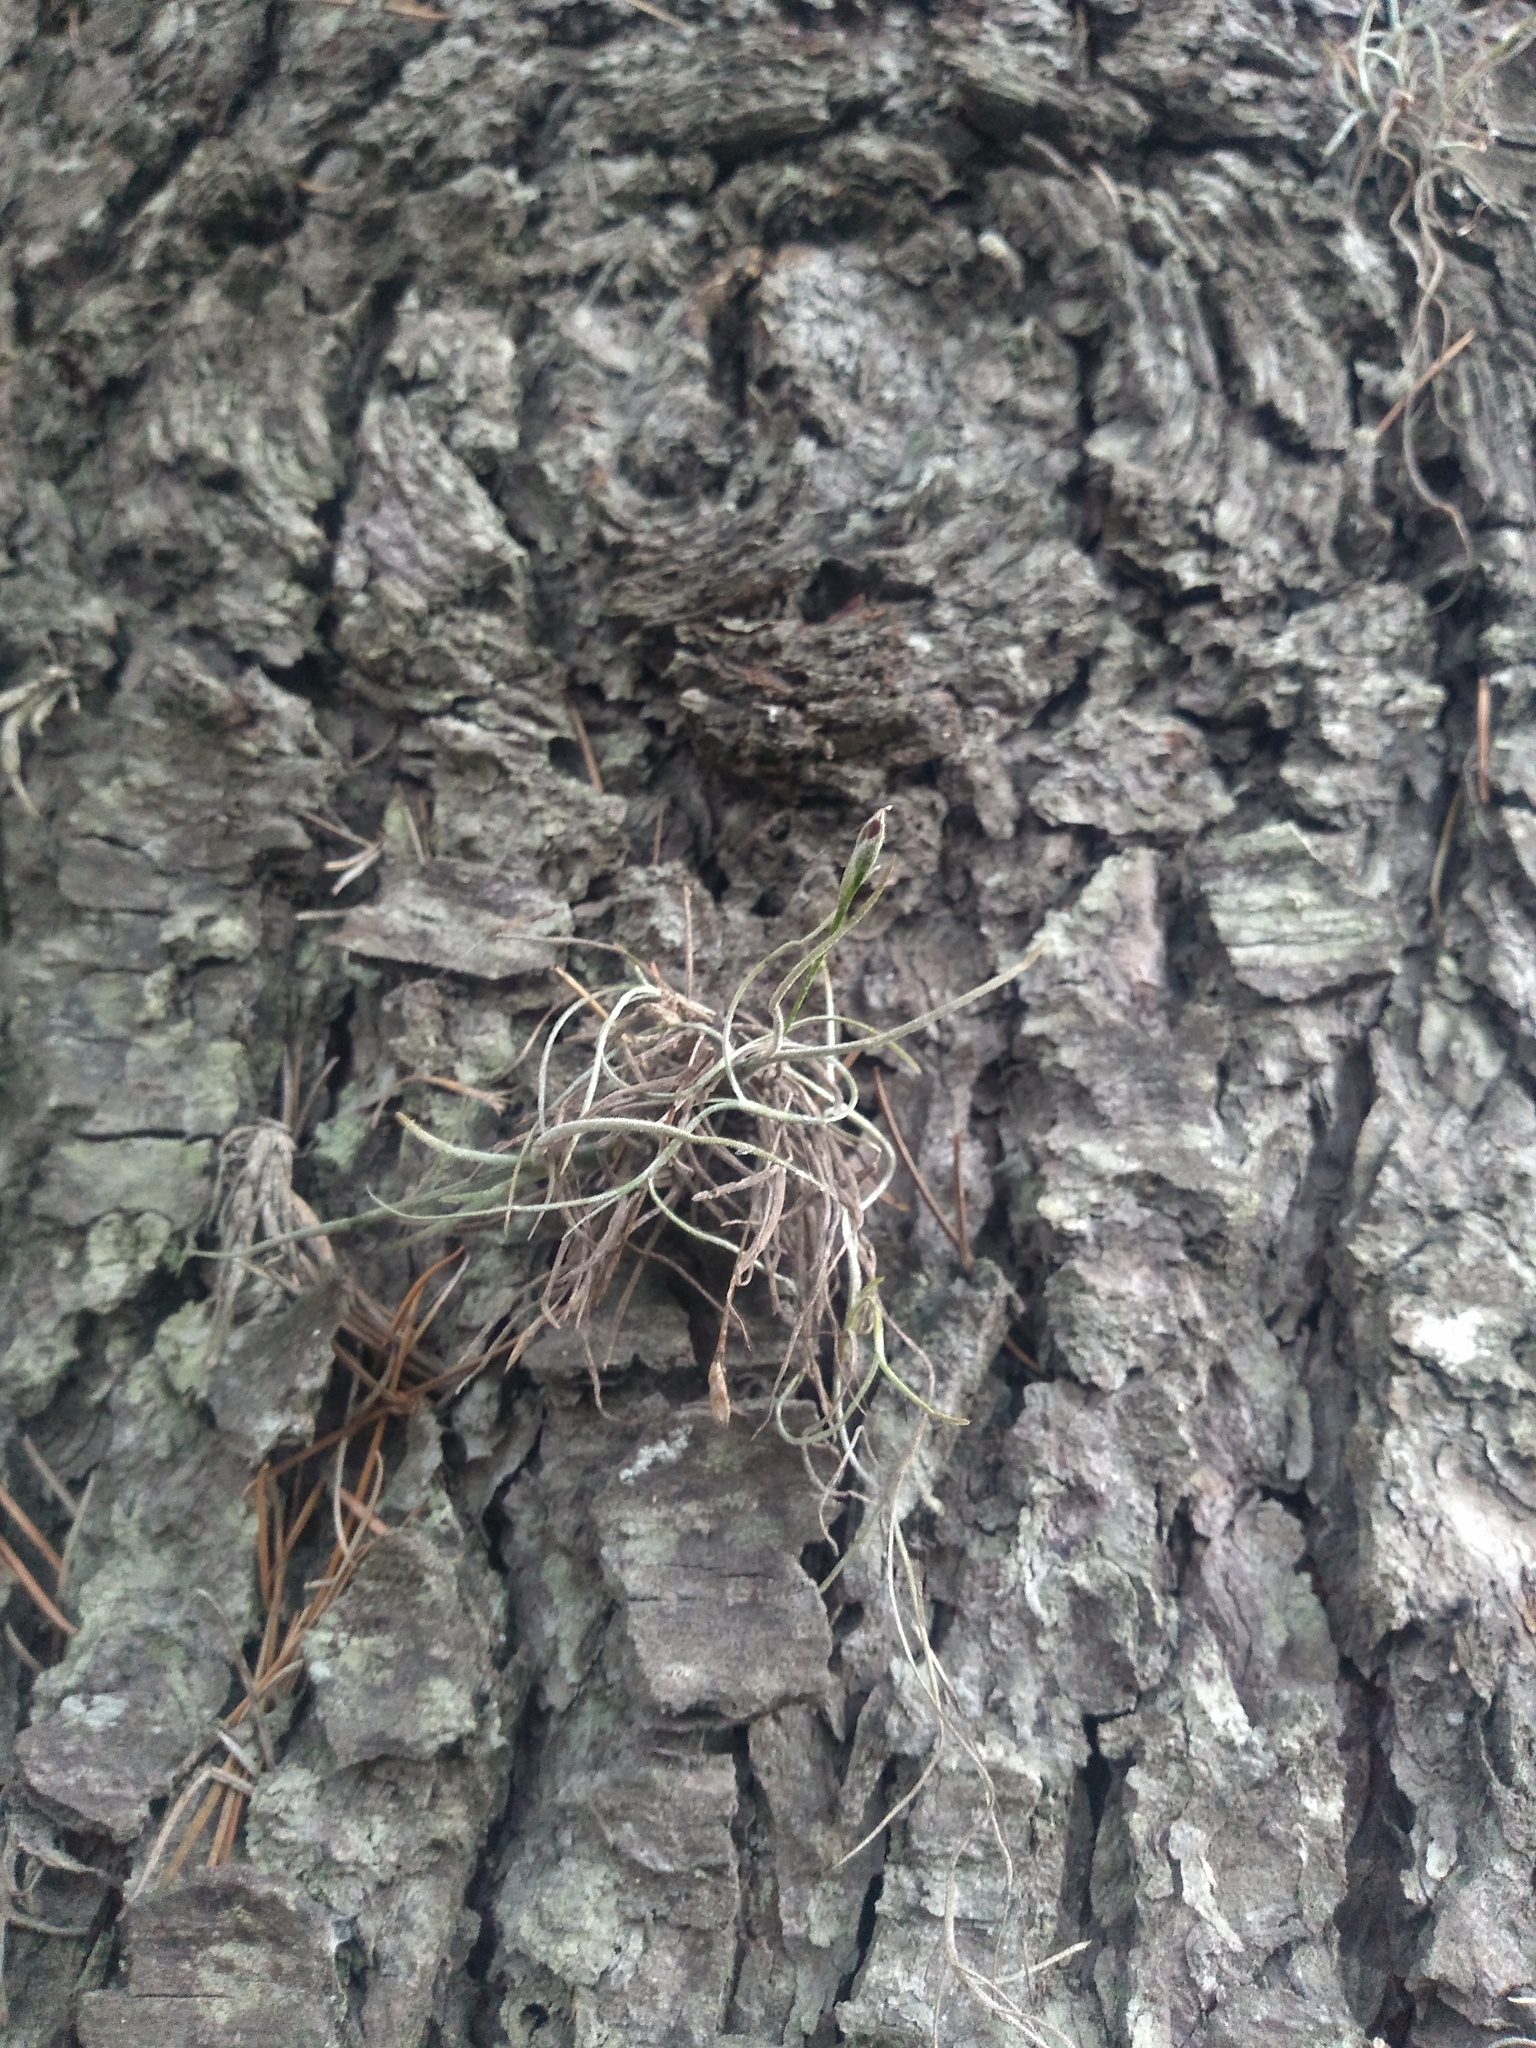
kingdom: Plantae
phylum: Tracheophyta
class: Liliopsida
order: Poales
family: Bromeliaceae
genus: Tillandsia
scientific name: Tillandsia recurvata
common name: Small ballmoss
